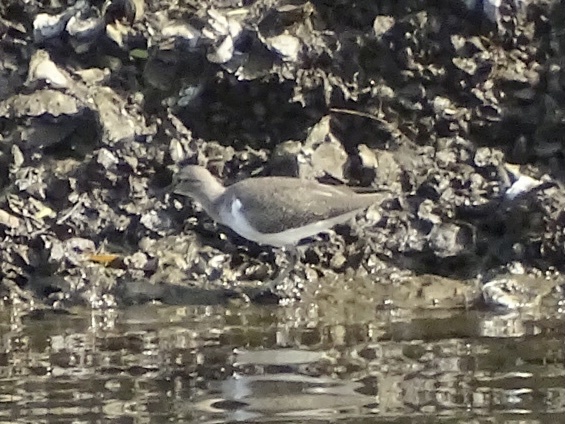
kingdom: Animalia
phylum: Chordata
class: Aves
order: Charadriiformes
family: Scolopacidae
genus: Actitis
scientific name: Actitis hypoleucos
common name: Common sandpiper
